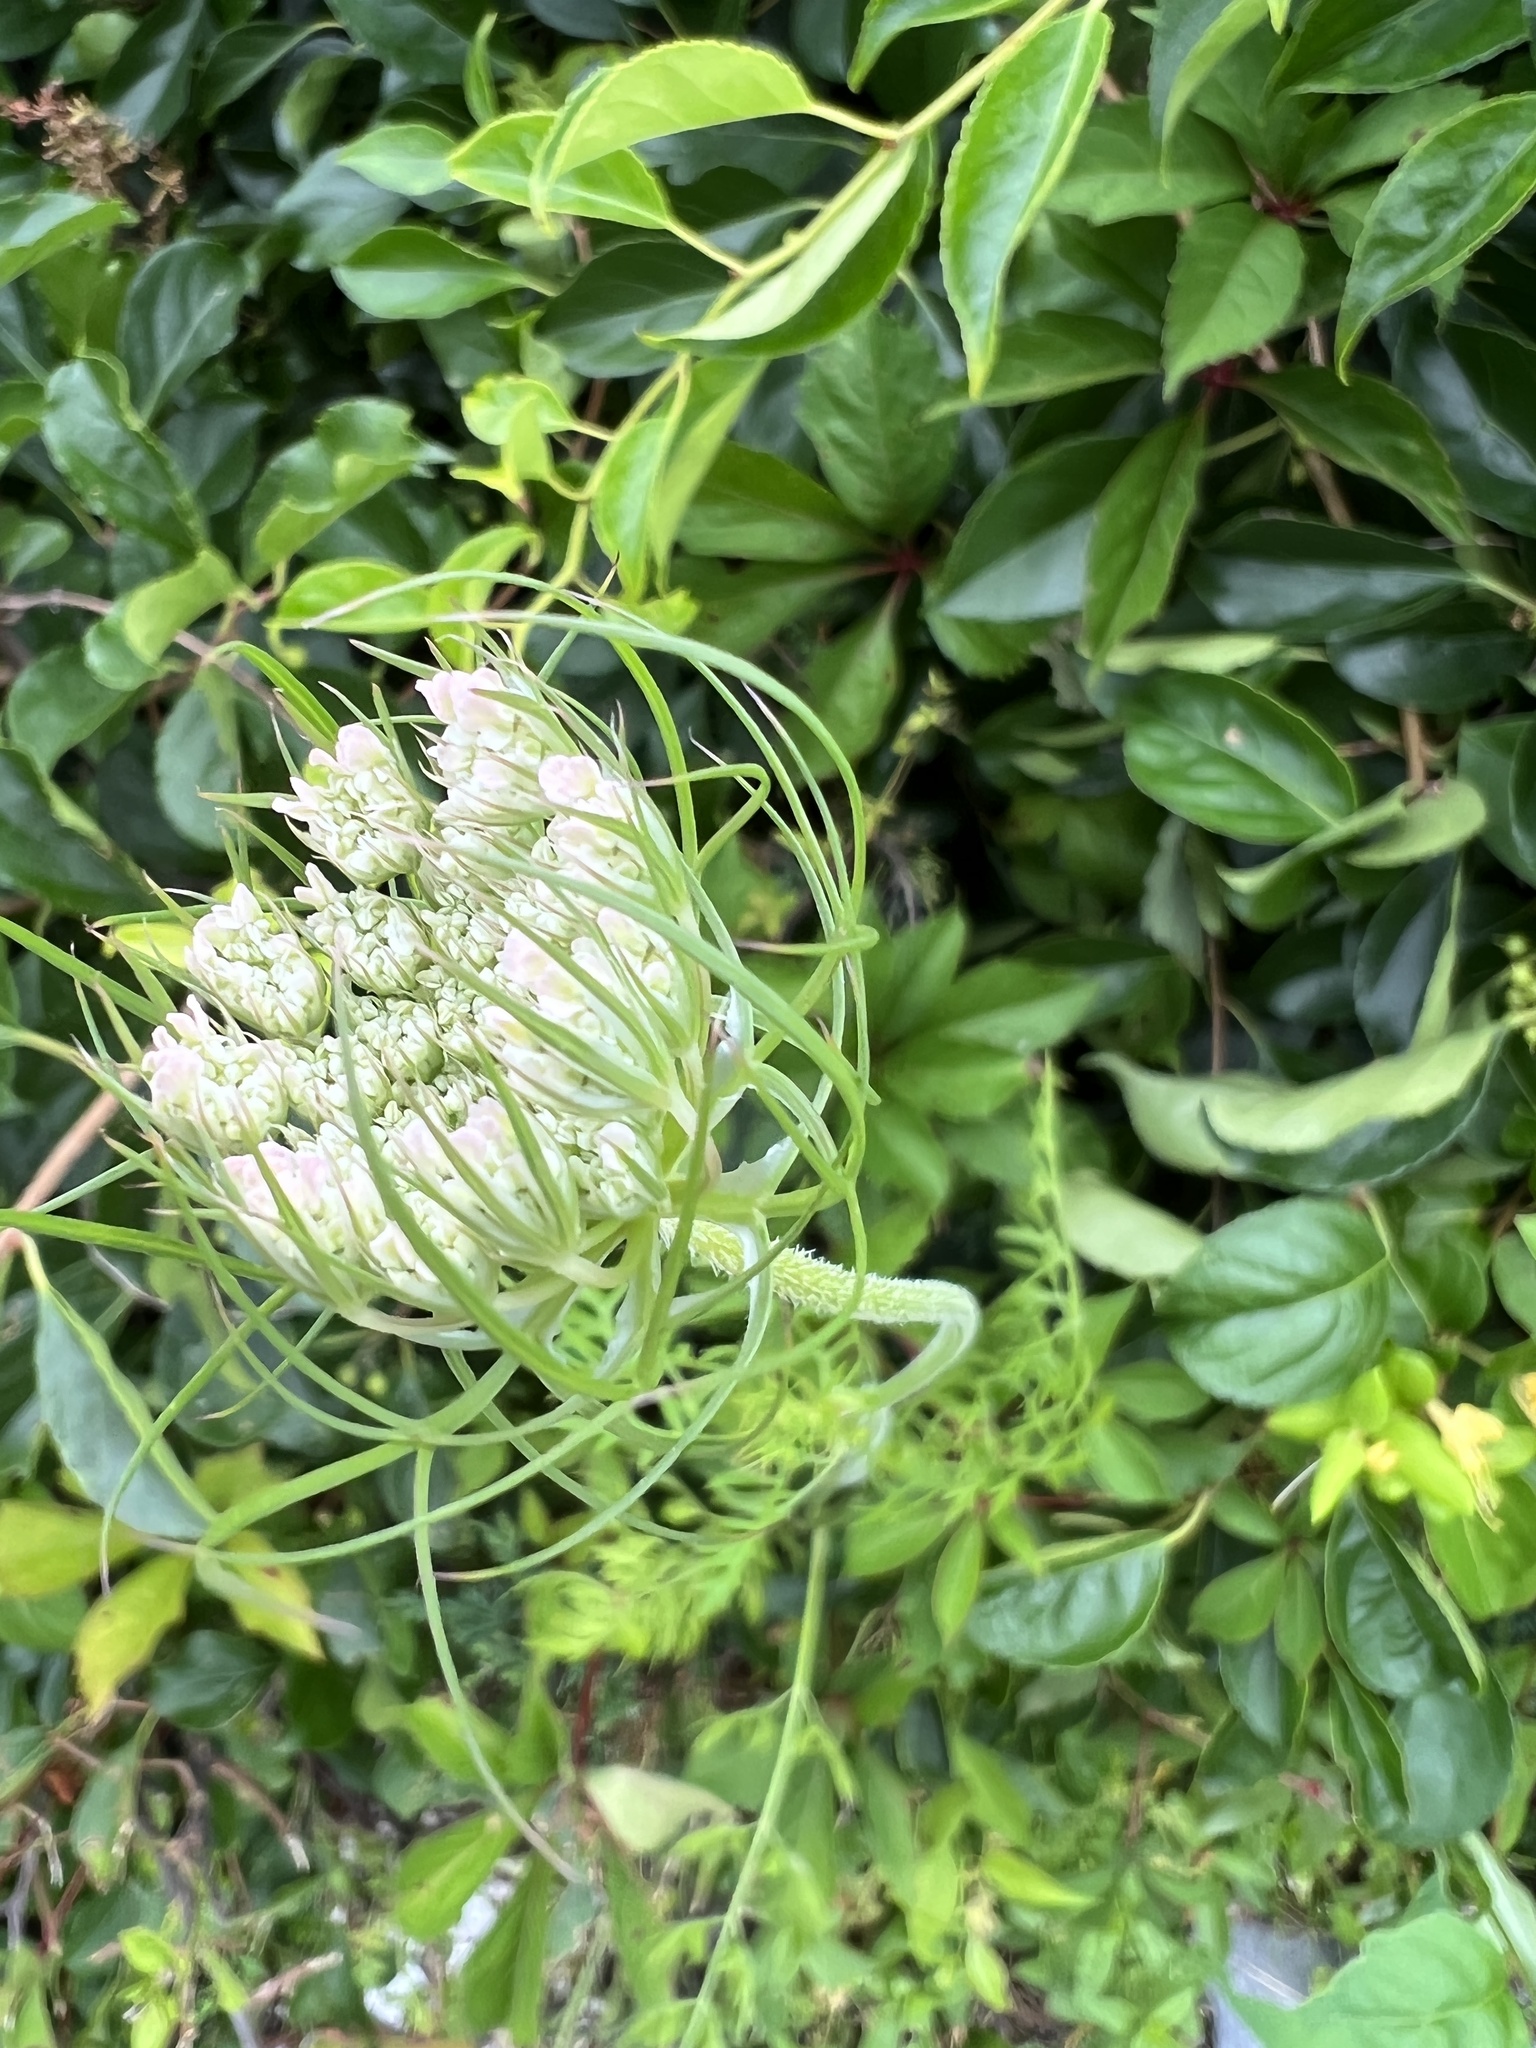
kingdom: Plantae
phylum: Tracheophyta
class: Magnoliopsida
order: Apiales
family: Apiaceae
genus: Daucus
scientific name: Daucus carota
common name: Wild carrot
